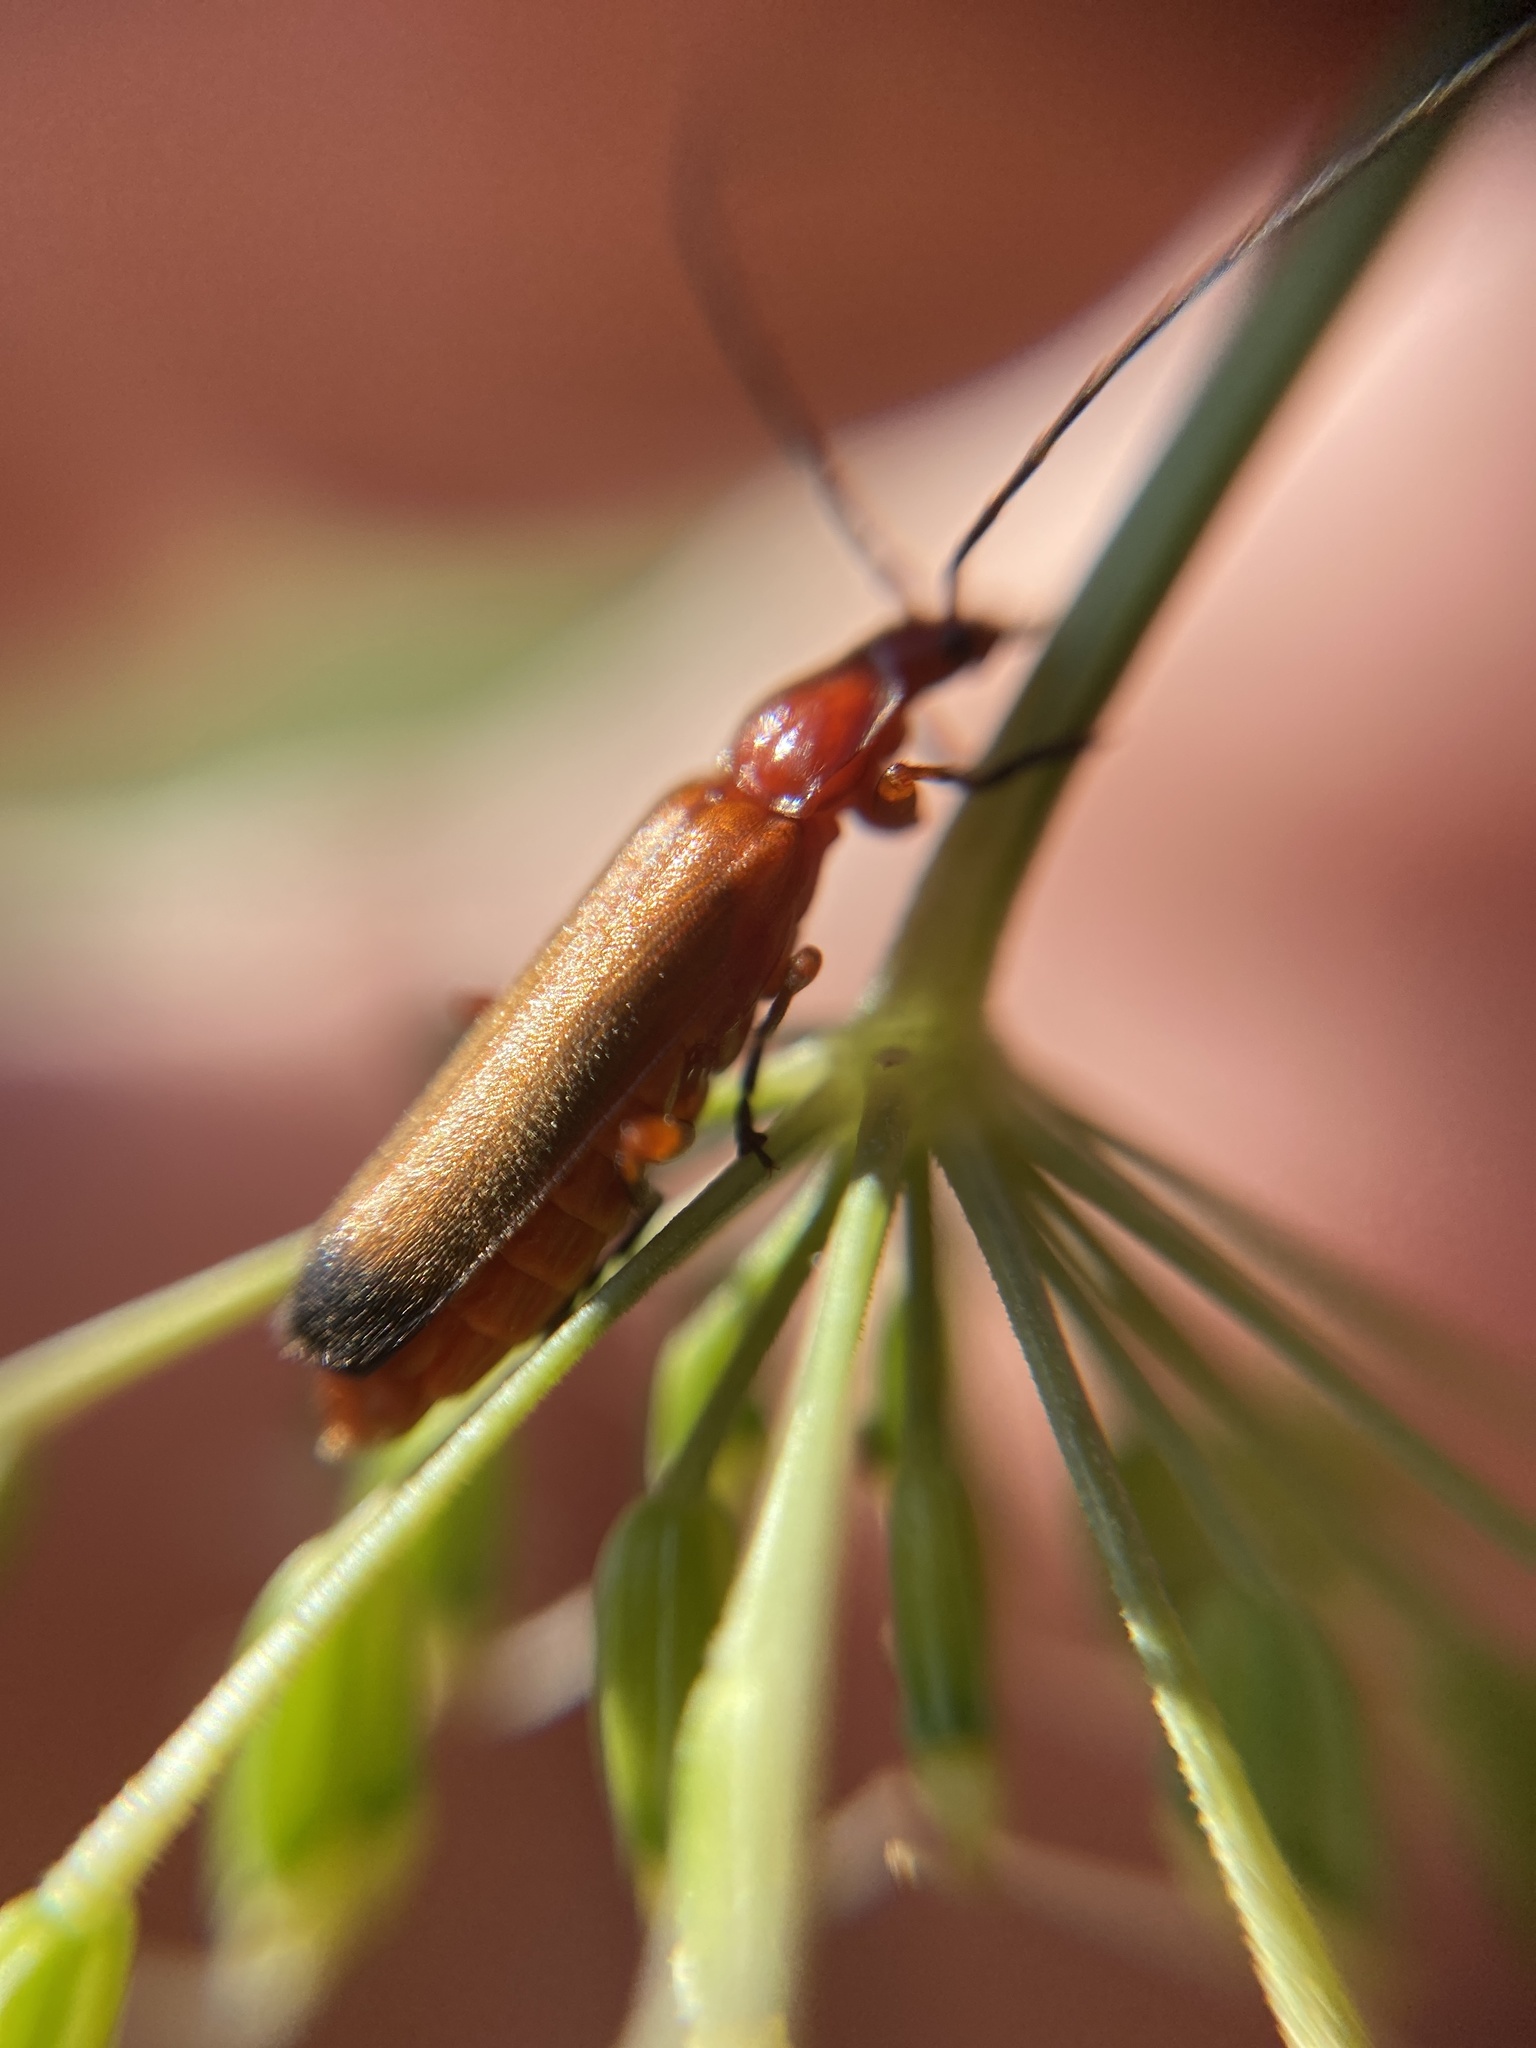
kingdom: Animalia
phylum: Arthropoda
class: Insecta
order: Coleoptera
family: Cantharidae
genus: Rhagonycha
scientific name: Rhagonycha fulva
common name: Common red soldier beetle
